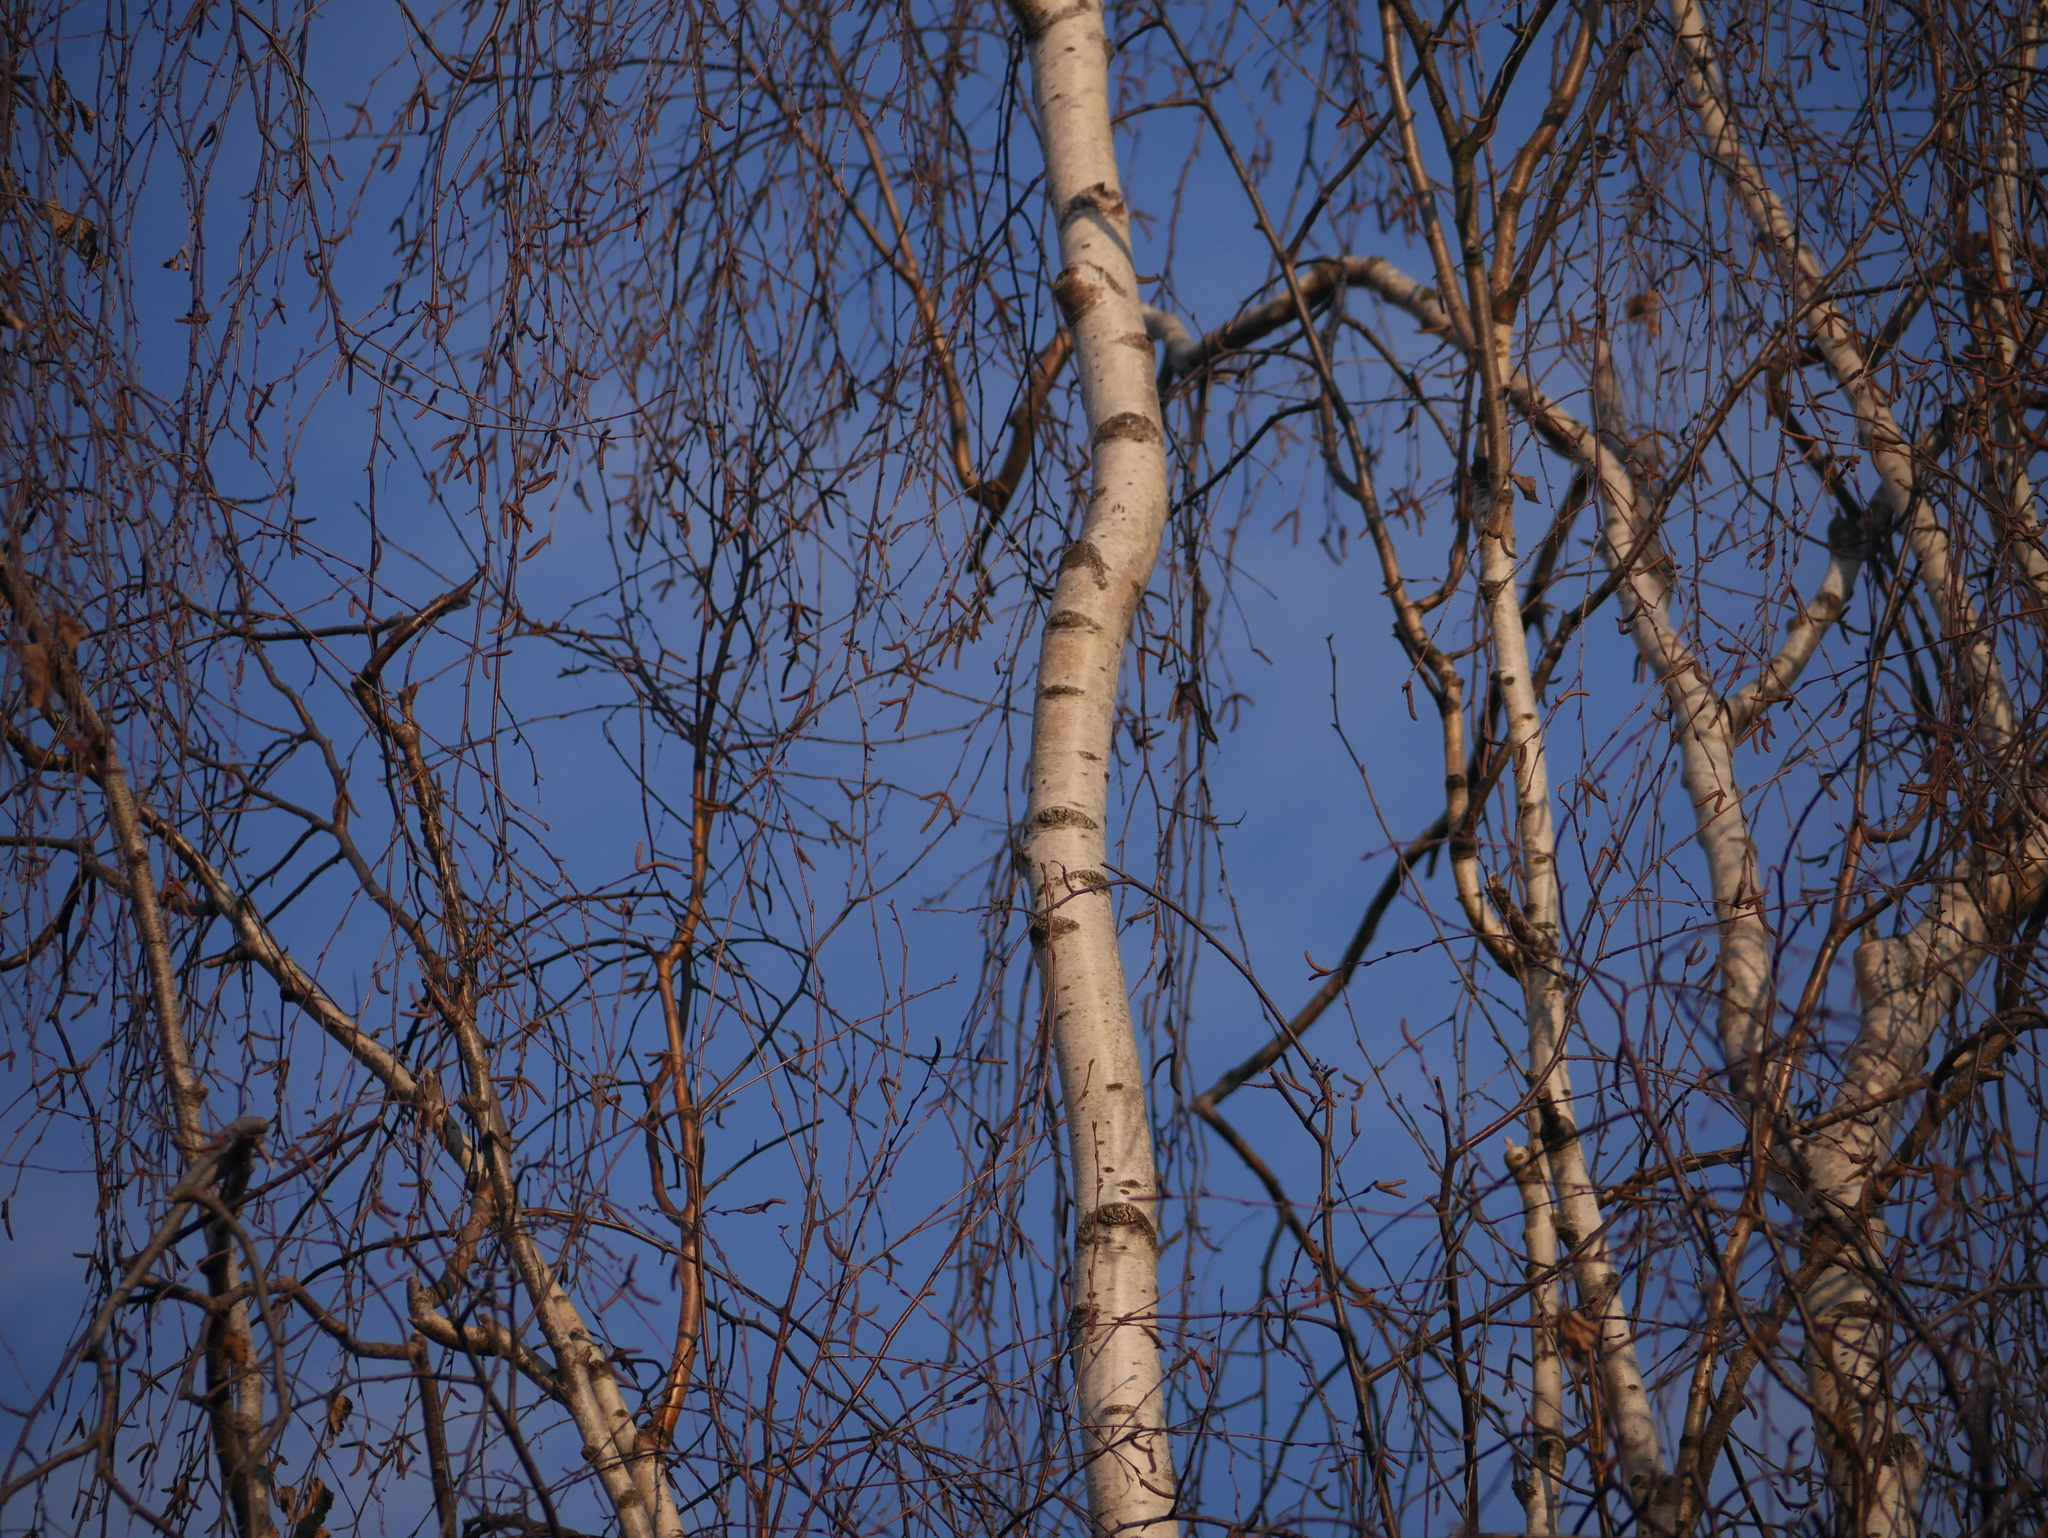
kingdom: Plantae
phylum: Tracheophyta
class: Magnoliopsida
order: Fagales
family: Betulaceae
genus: Betula
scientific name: Betula pendula
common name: Silver birch
